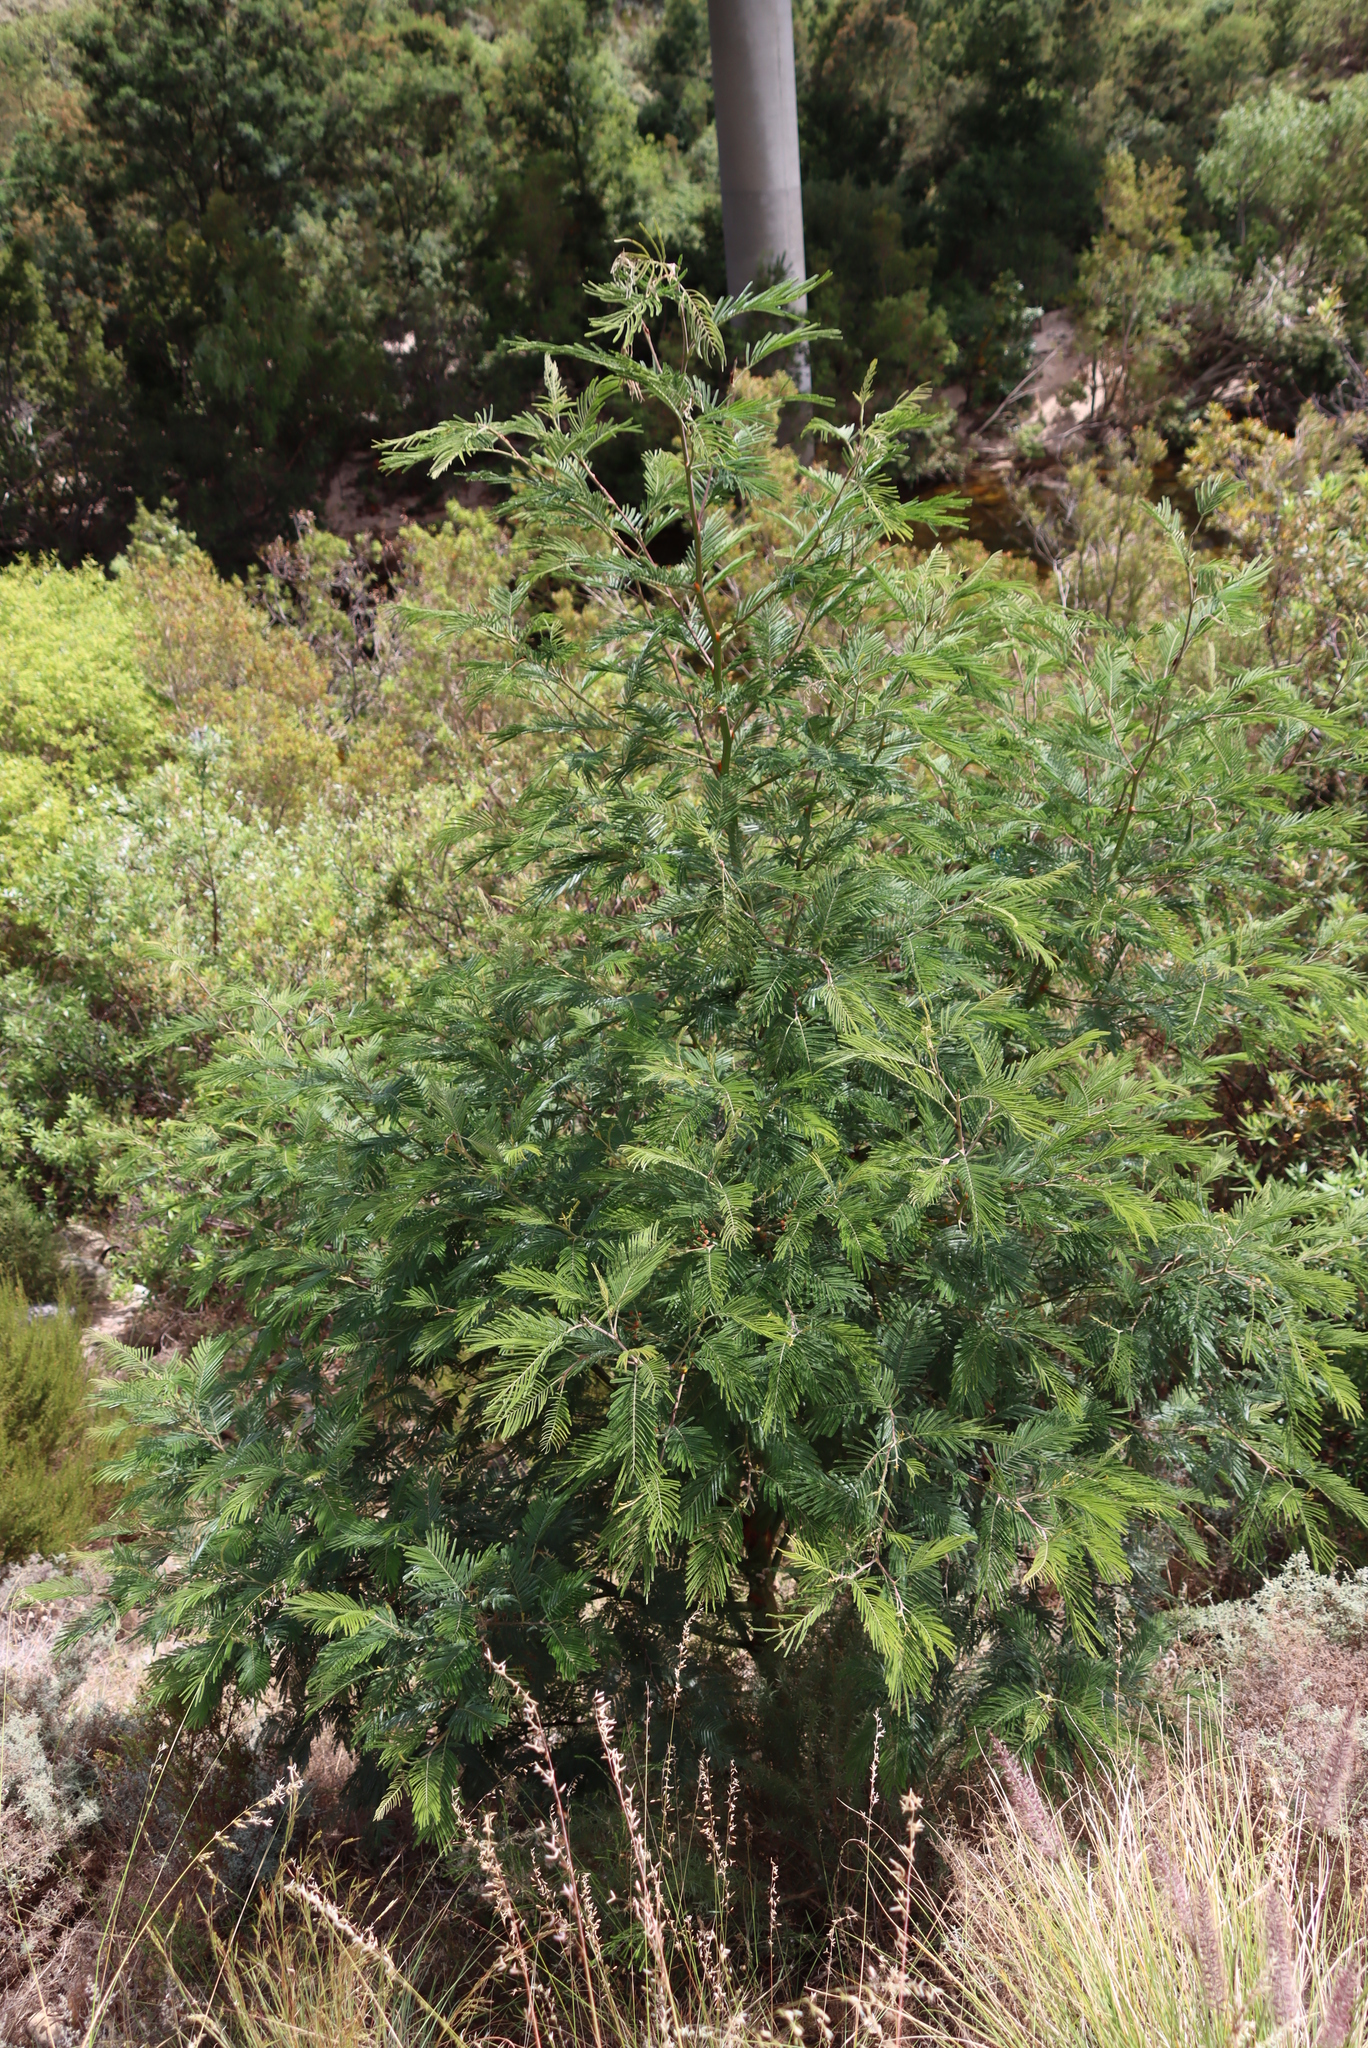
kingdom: Plantae
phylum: Tracheophyta
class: Magnoliopsida
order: Fabales
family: Fabaceae
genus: Acacia
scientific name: Acacia mearnsii
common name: Black wattle
